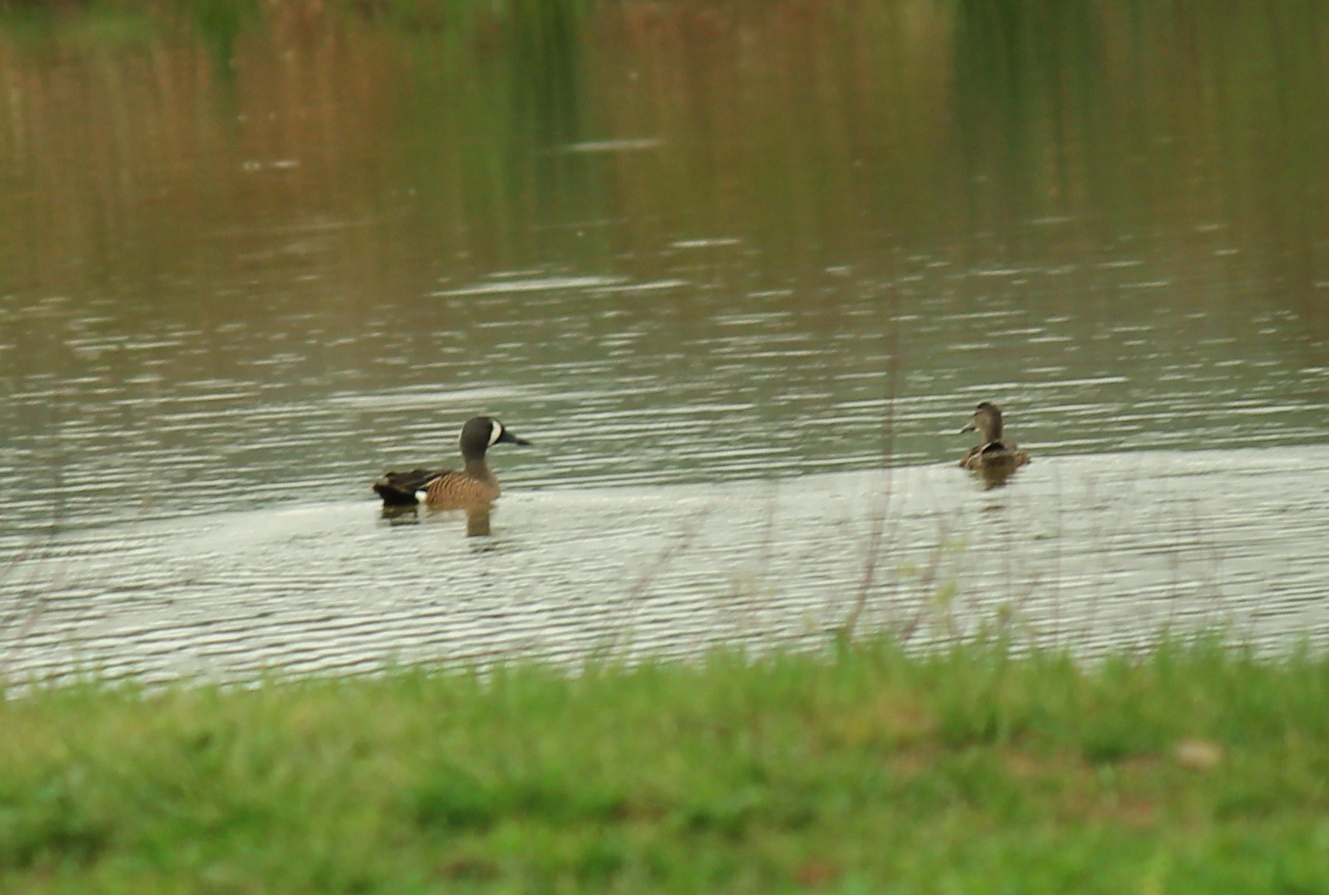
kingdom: Animalia
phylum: Chordata
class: Aves
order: Anseriformes
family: Anatidae
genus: Spatula
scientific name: Spatula discors
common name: Blue-winged teal
